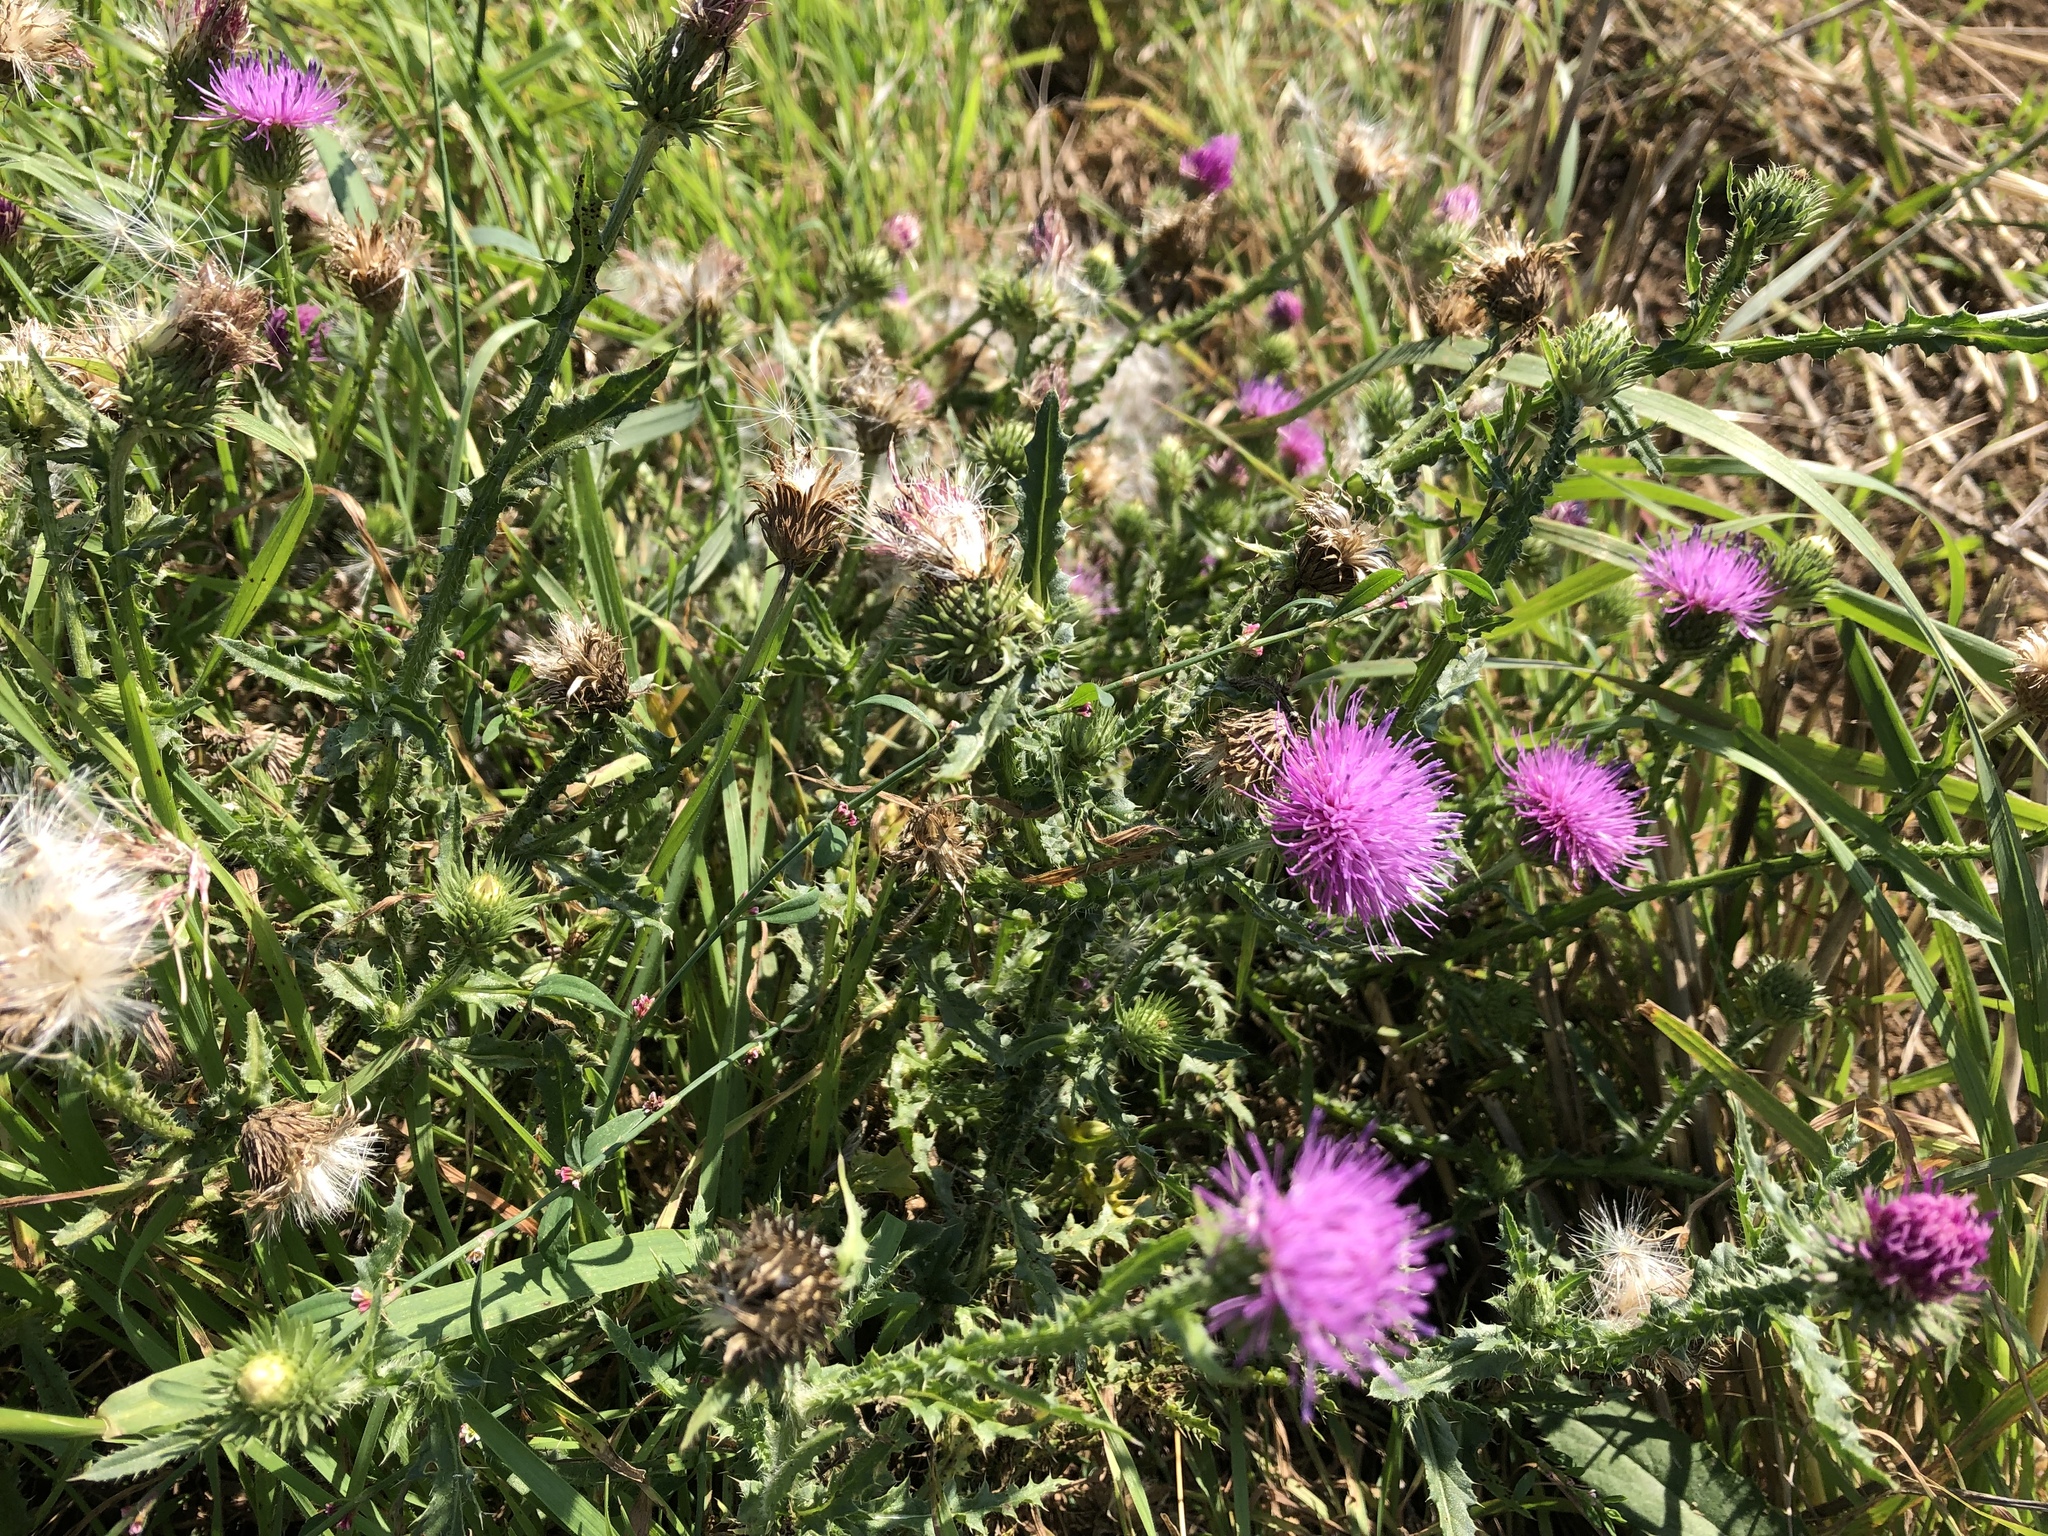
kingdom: Plantae
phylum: Tracheophyta
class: Magnoliopsida
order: Asterales
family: Asteraceae
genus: Carduus
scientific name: Carduus acanthoides
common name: Plumeless thistle
